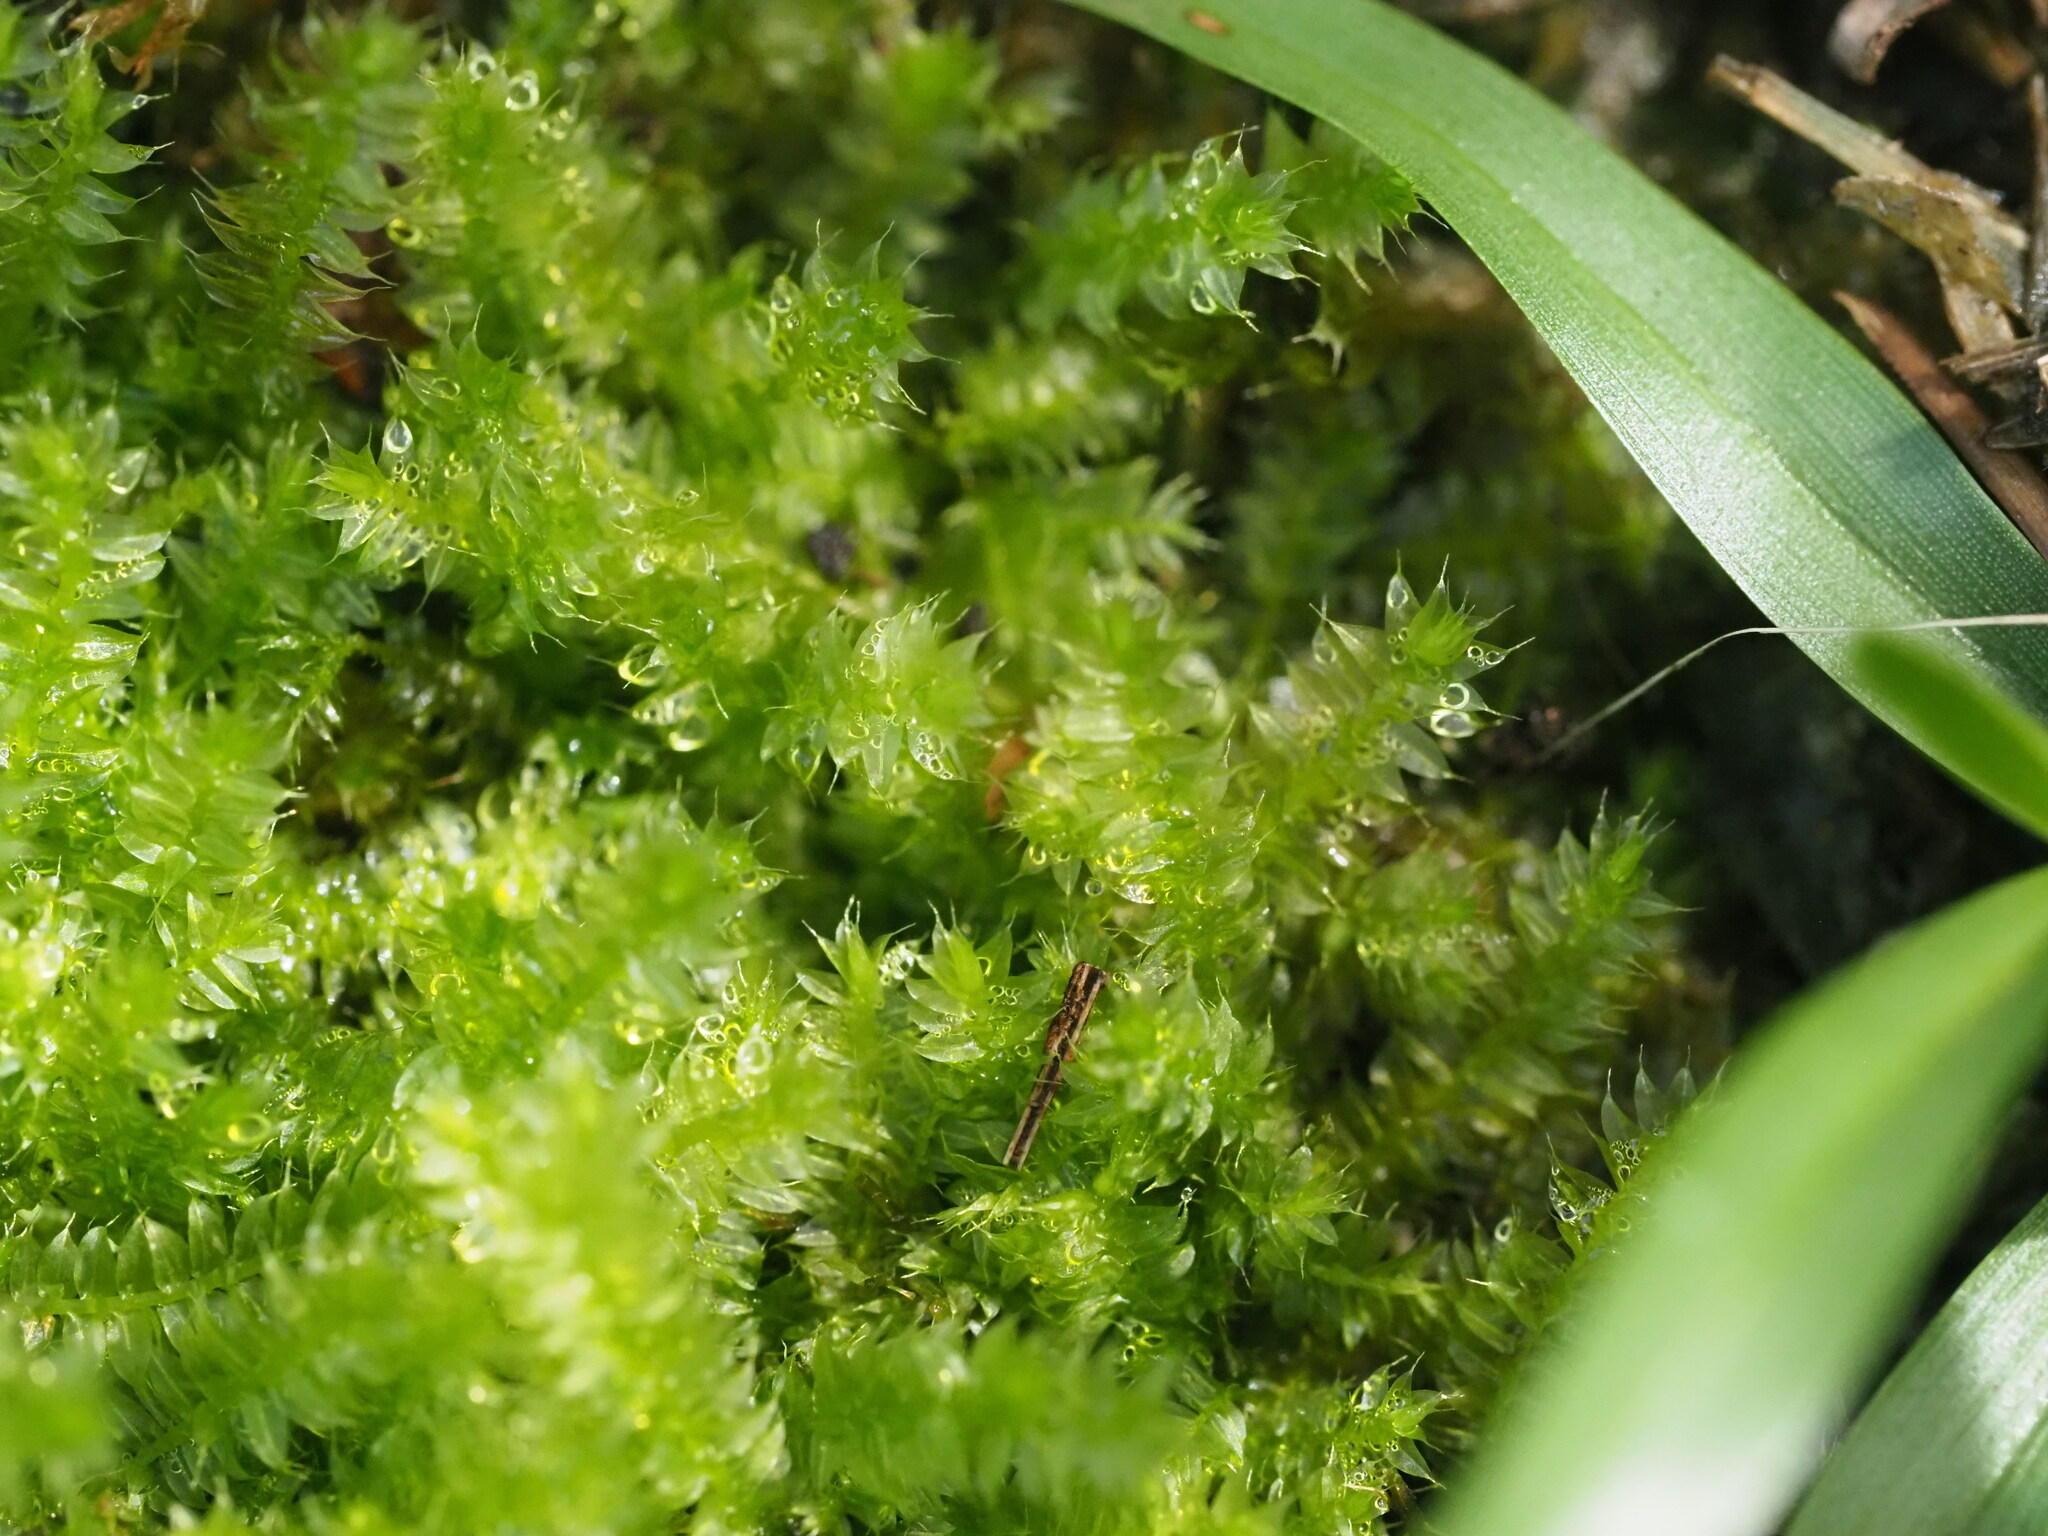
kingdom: Plantae
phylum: Bryophyta
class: Bryopsida
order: Hypnodendrales
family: Racopilaceae
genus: Racopilum
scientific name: Racopilum cuspidigerum
